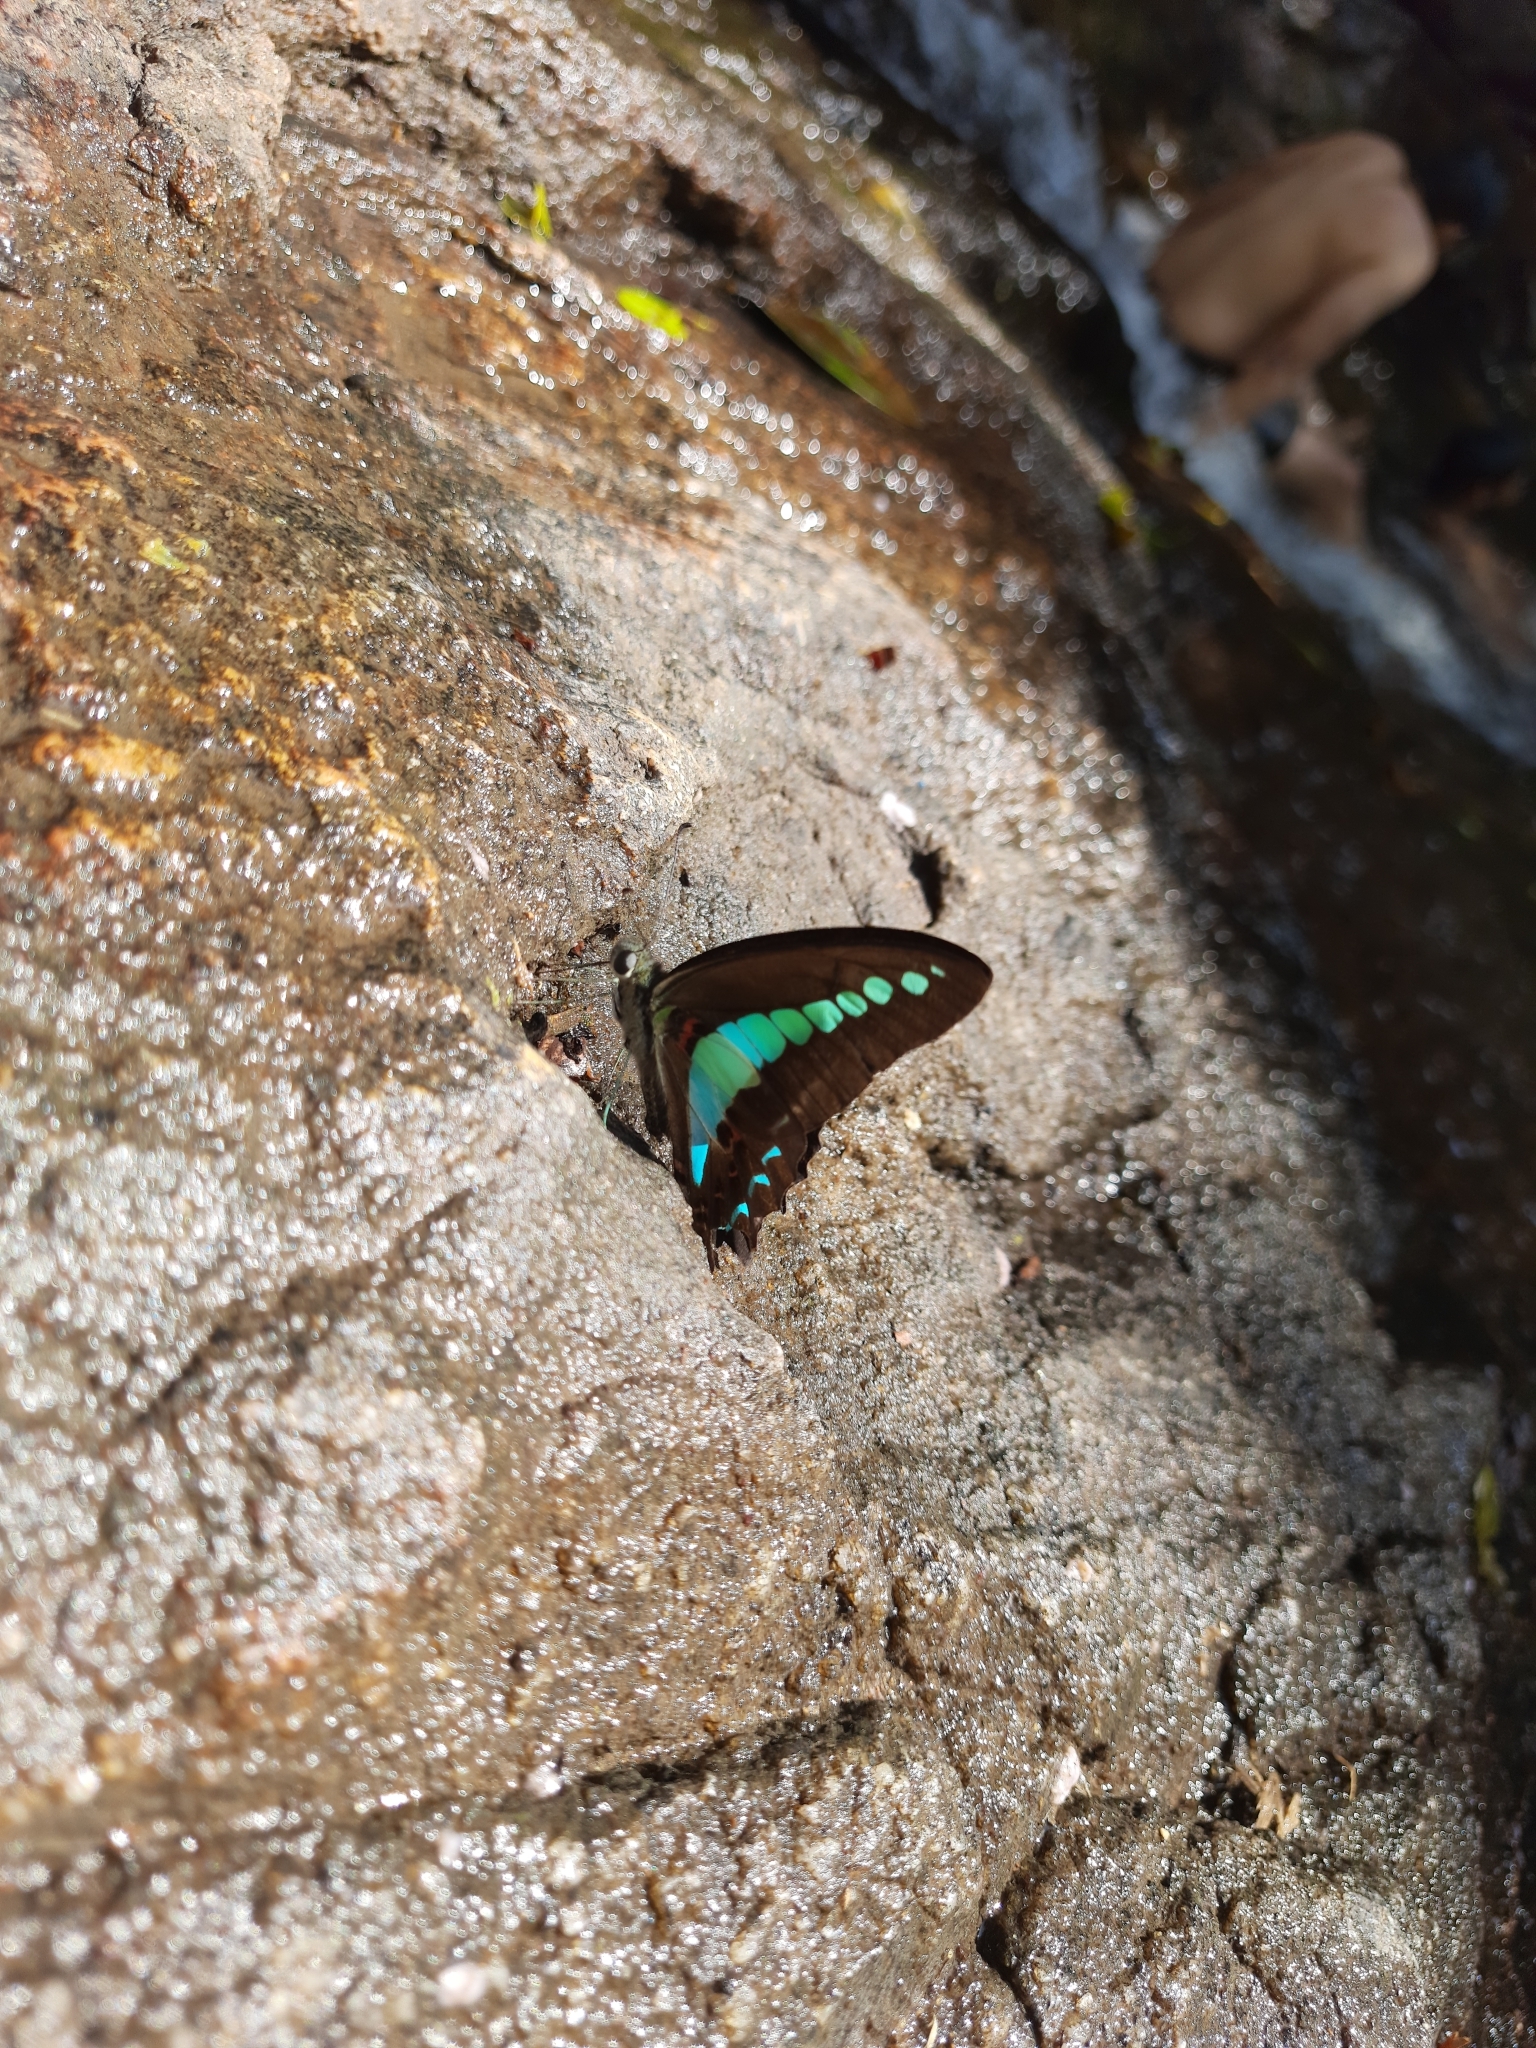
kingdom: Animalia
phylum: Arthropoda
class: Insecta
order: Lepidoptera
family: Papilionidae
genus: Graphium
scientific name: Graphium
